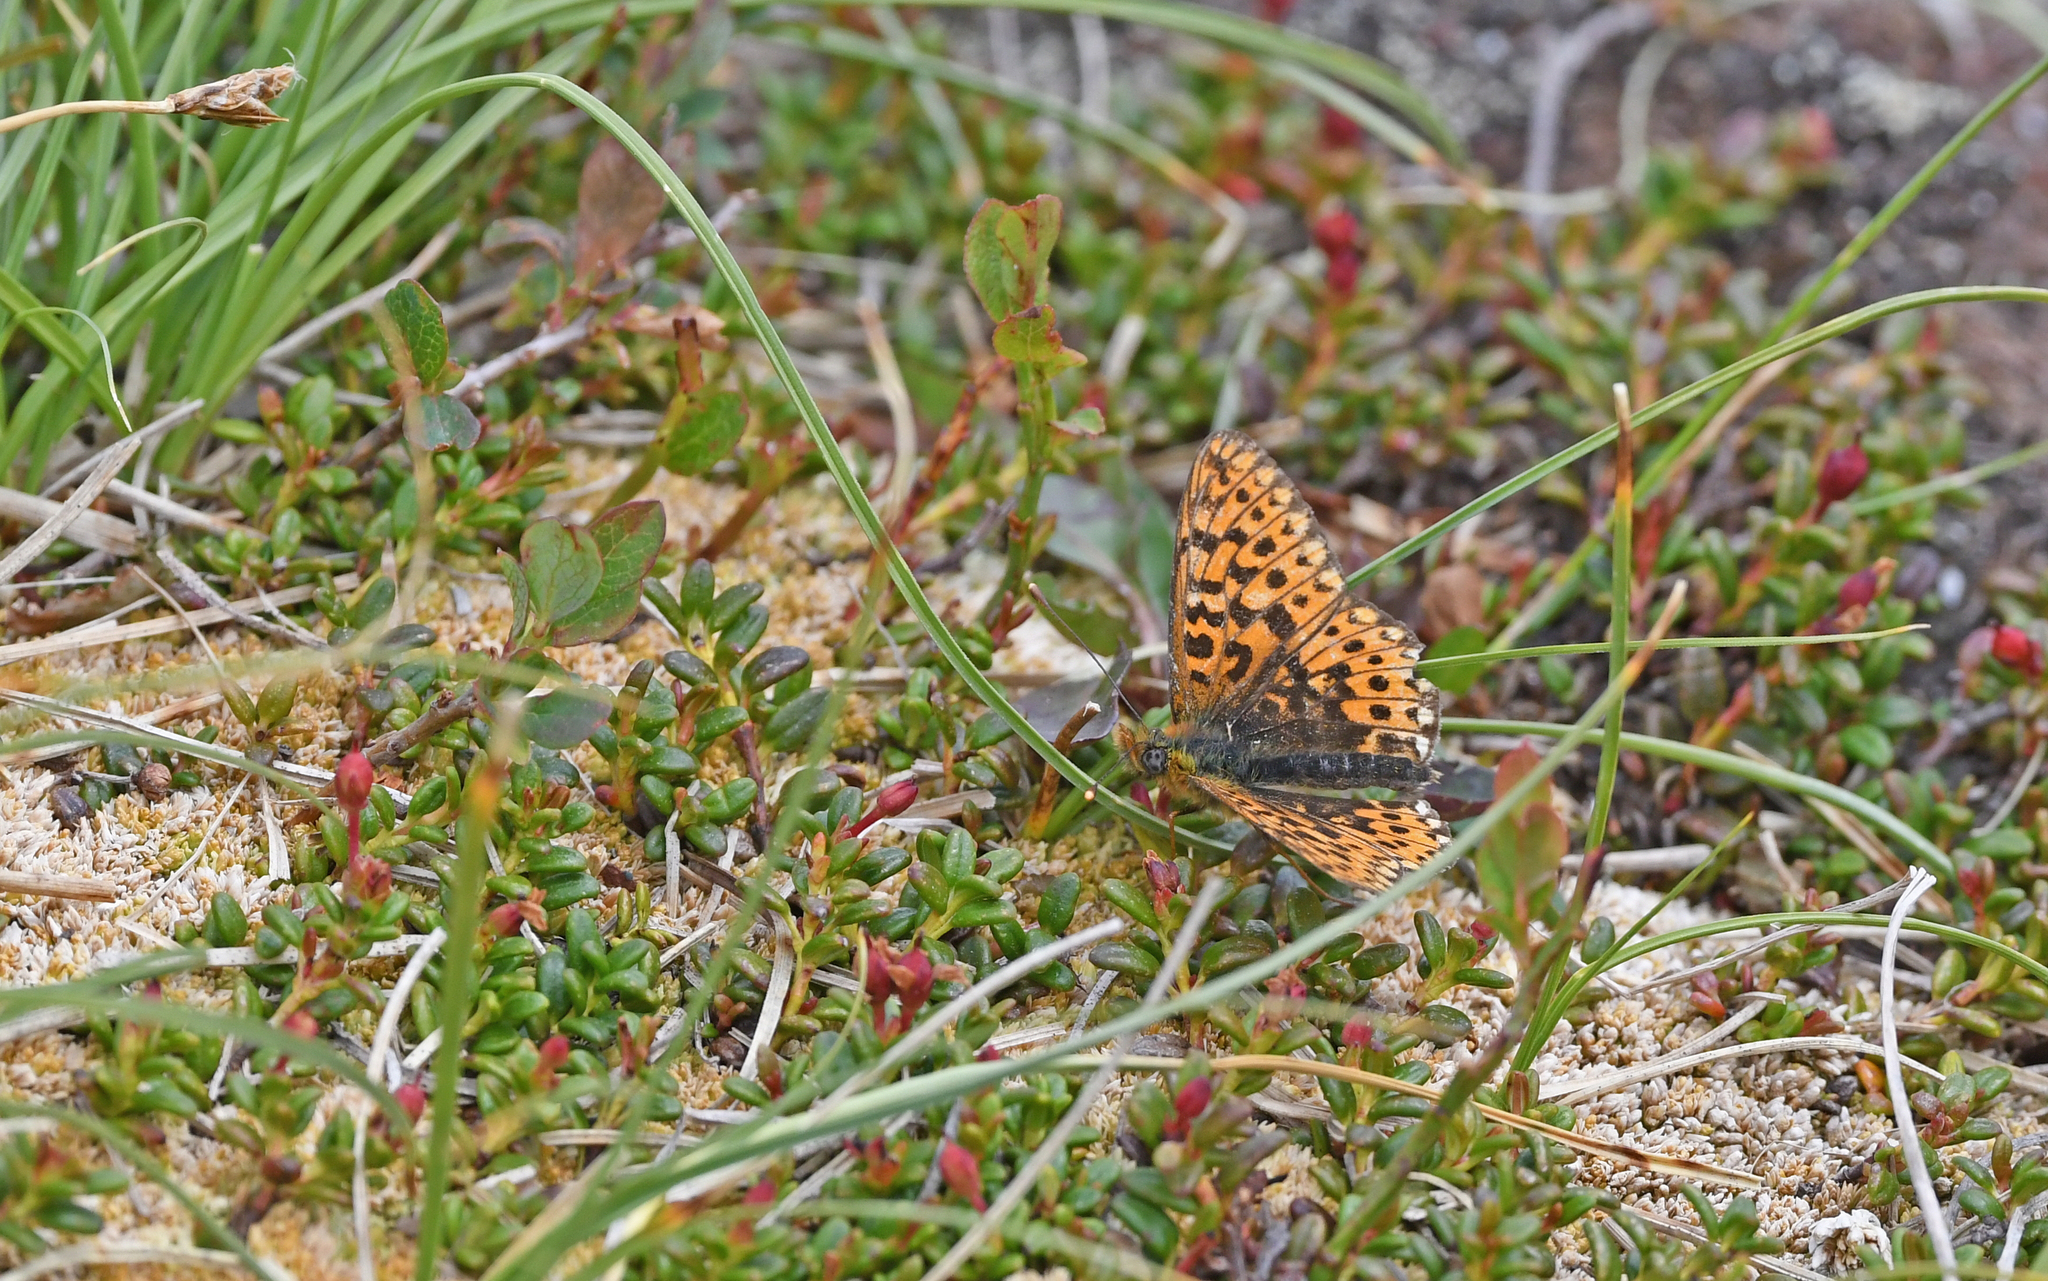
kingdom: Animalia
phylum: Arthropoda
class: Insecta
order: Lepidoptera
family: Nymphalidae
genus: Clossiana
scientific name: Clossiana euphrosyne
